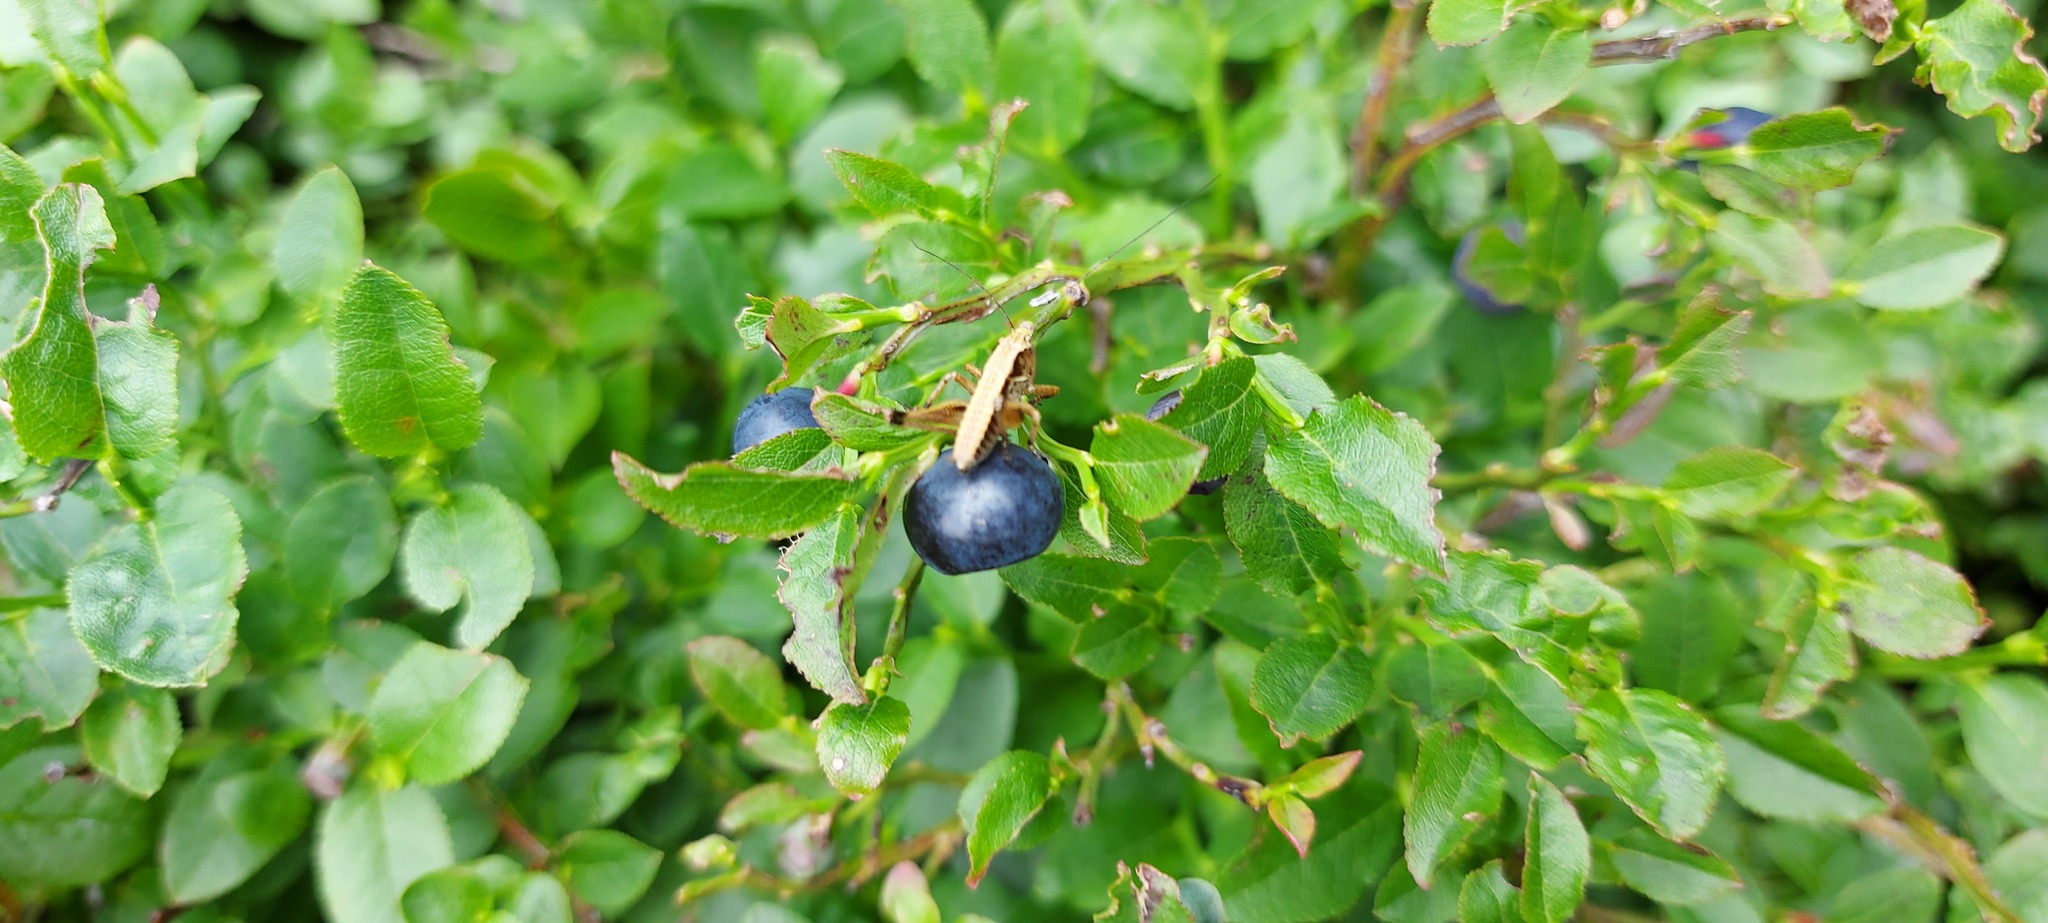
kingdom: Plantae
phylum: Tracheophyta
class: Magnoliopsida
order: Ericales
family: Ericaceae
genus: Vaccinium
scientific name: Vaccinium myrtillus
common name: Bilberry
